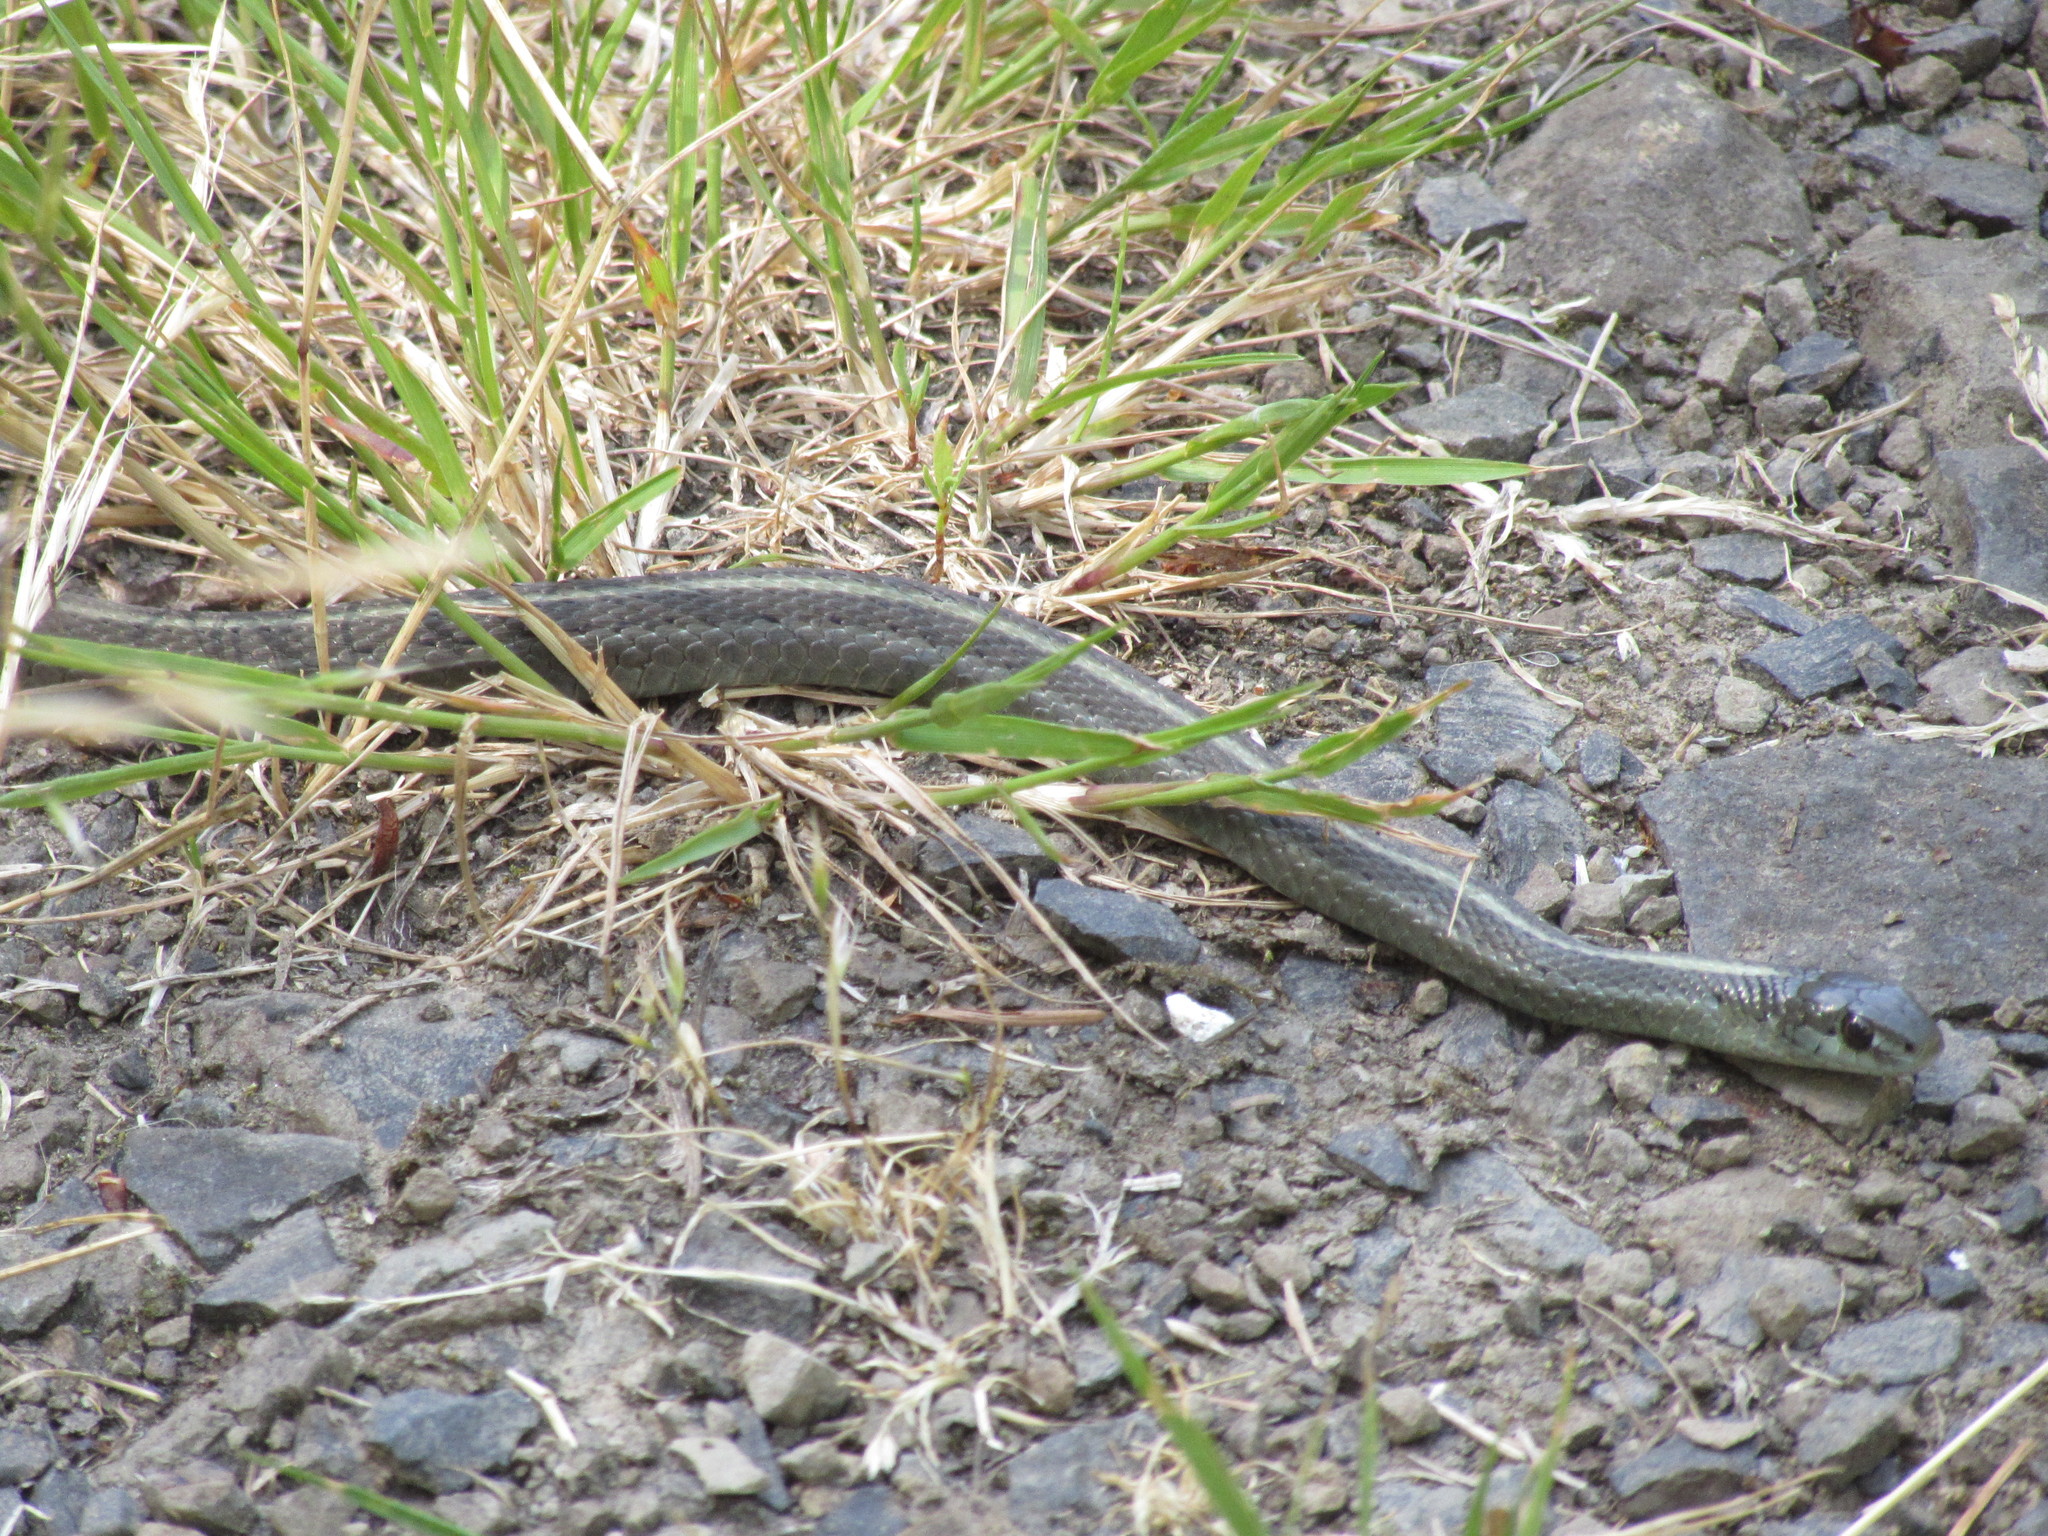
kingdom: Animalia
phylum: Chordata
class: Squamata
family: Colubridae
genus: Thamnophis
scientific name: Thamnophis ordinoides
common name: Northwestern garter snake
